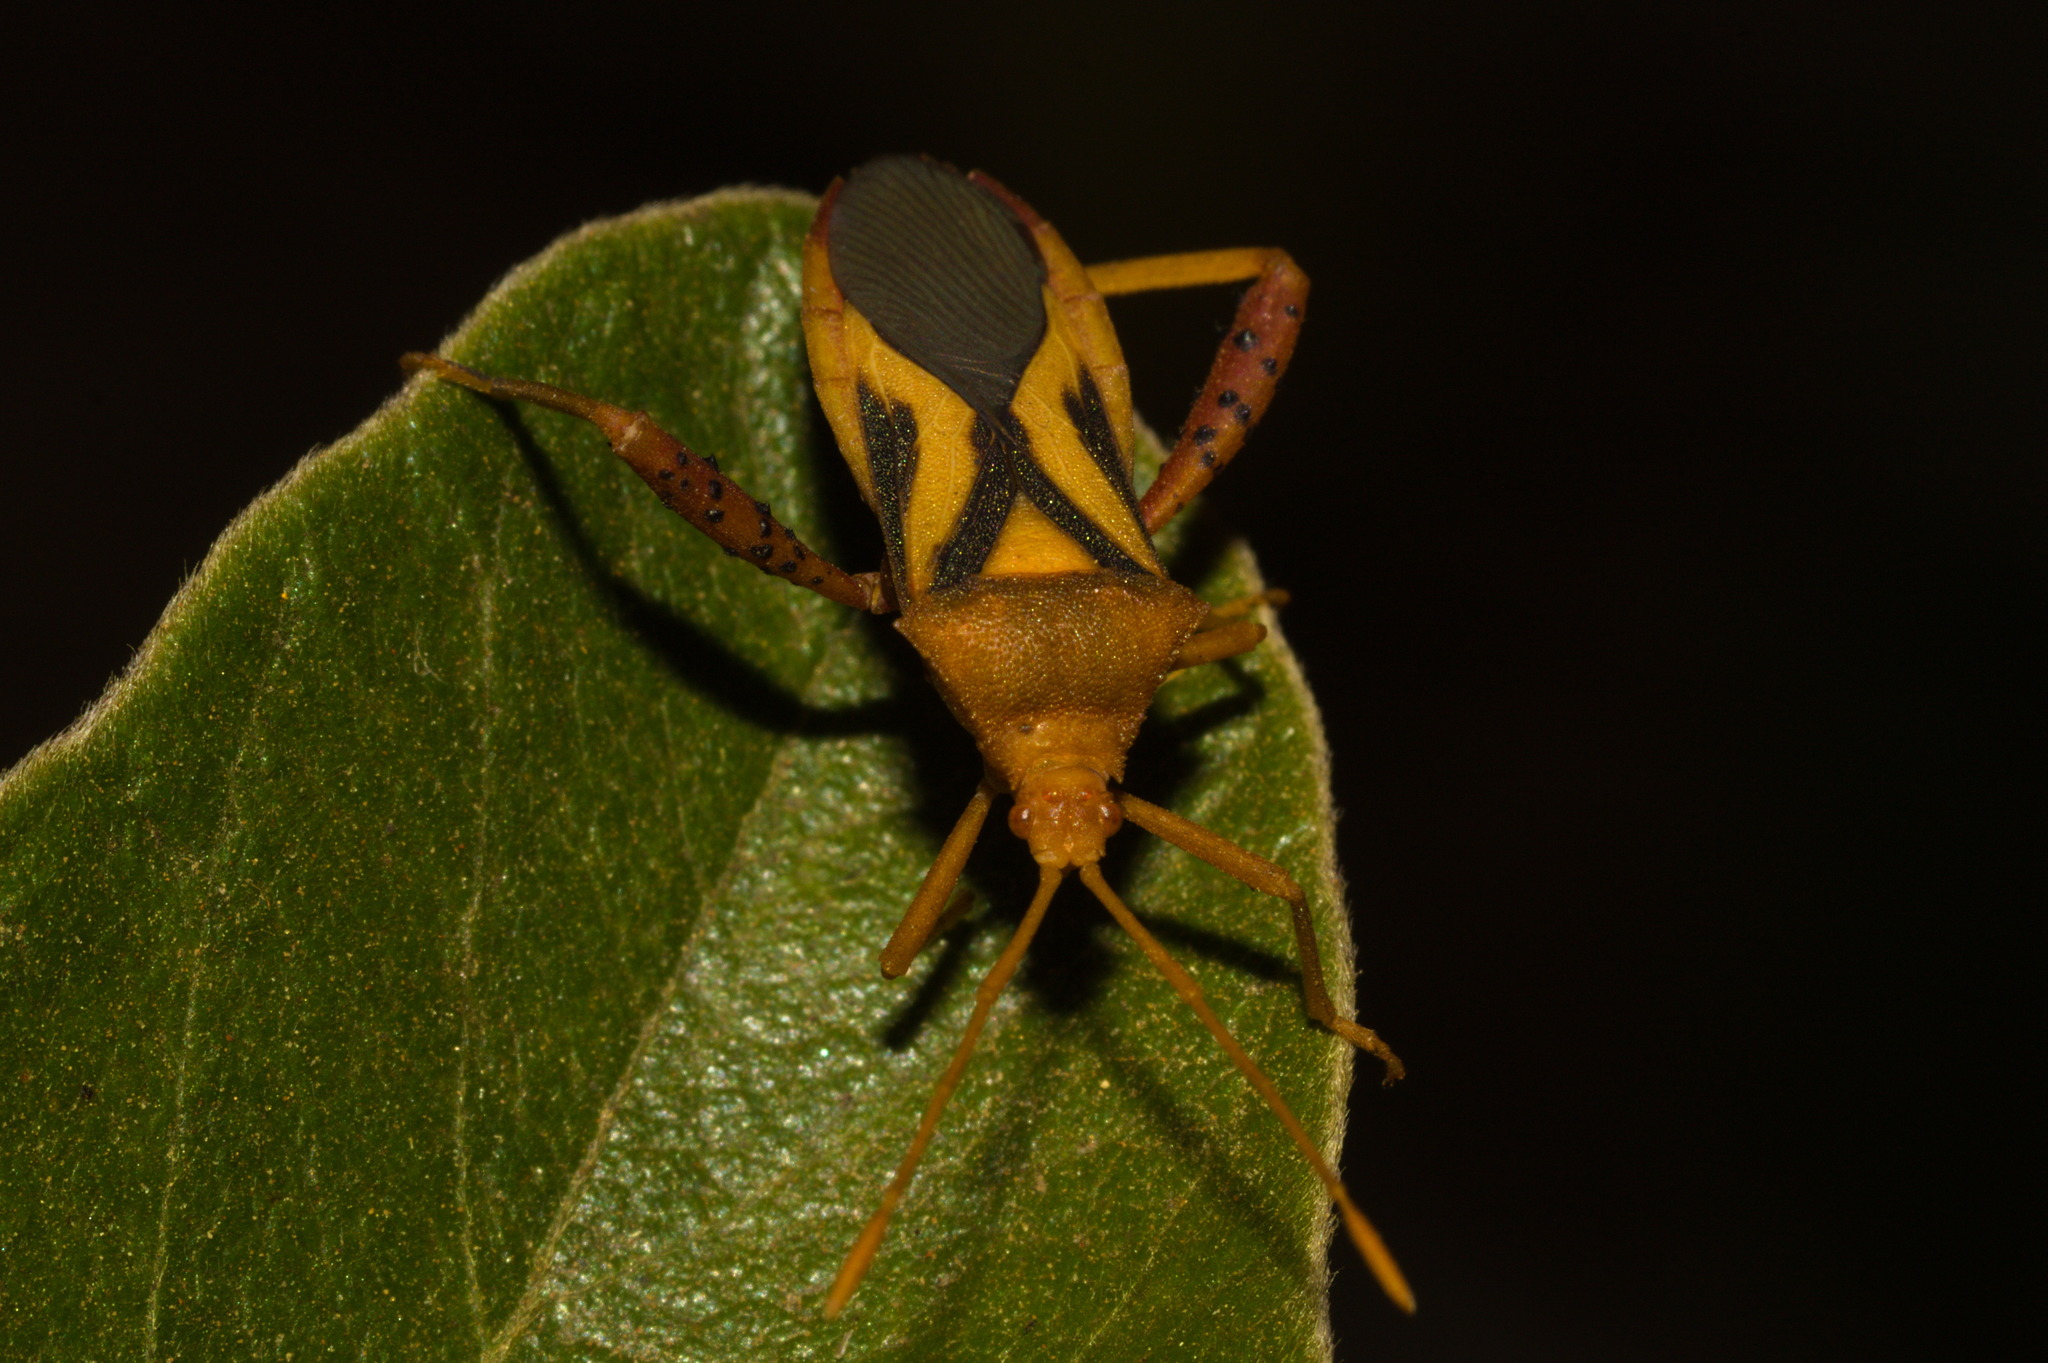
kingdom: Animalia
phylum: Arthropoda
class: Insecta
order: Hemiptera
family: Coreidae
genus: Crinocerus
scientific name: Crinocerus sanctus
